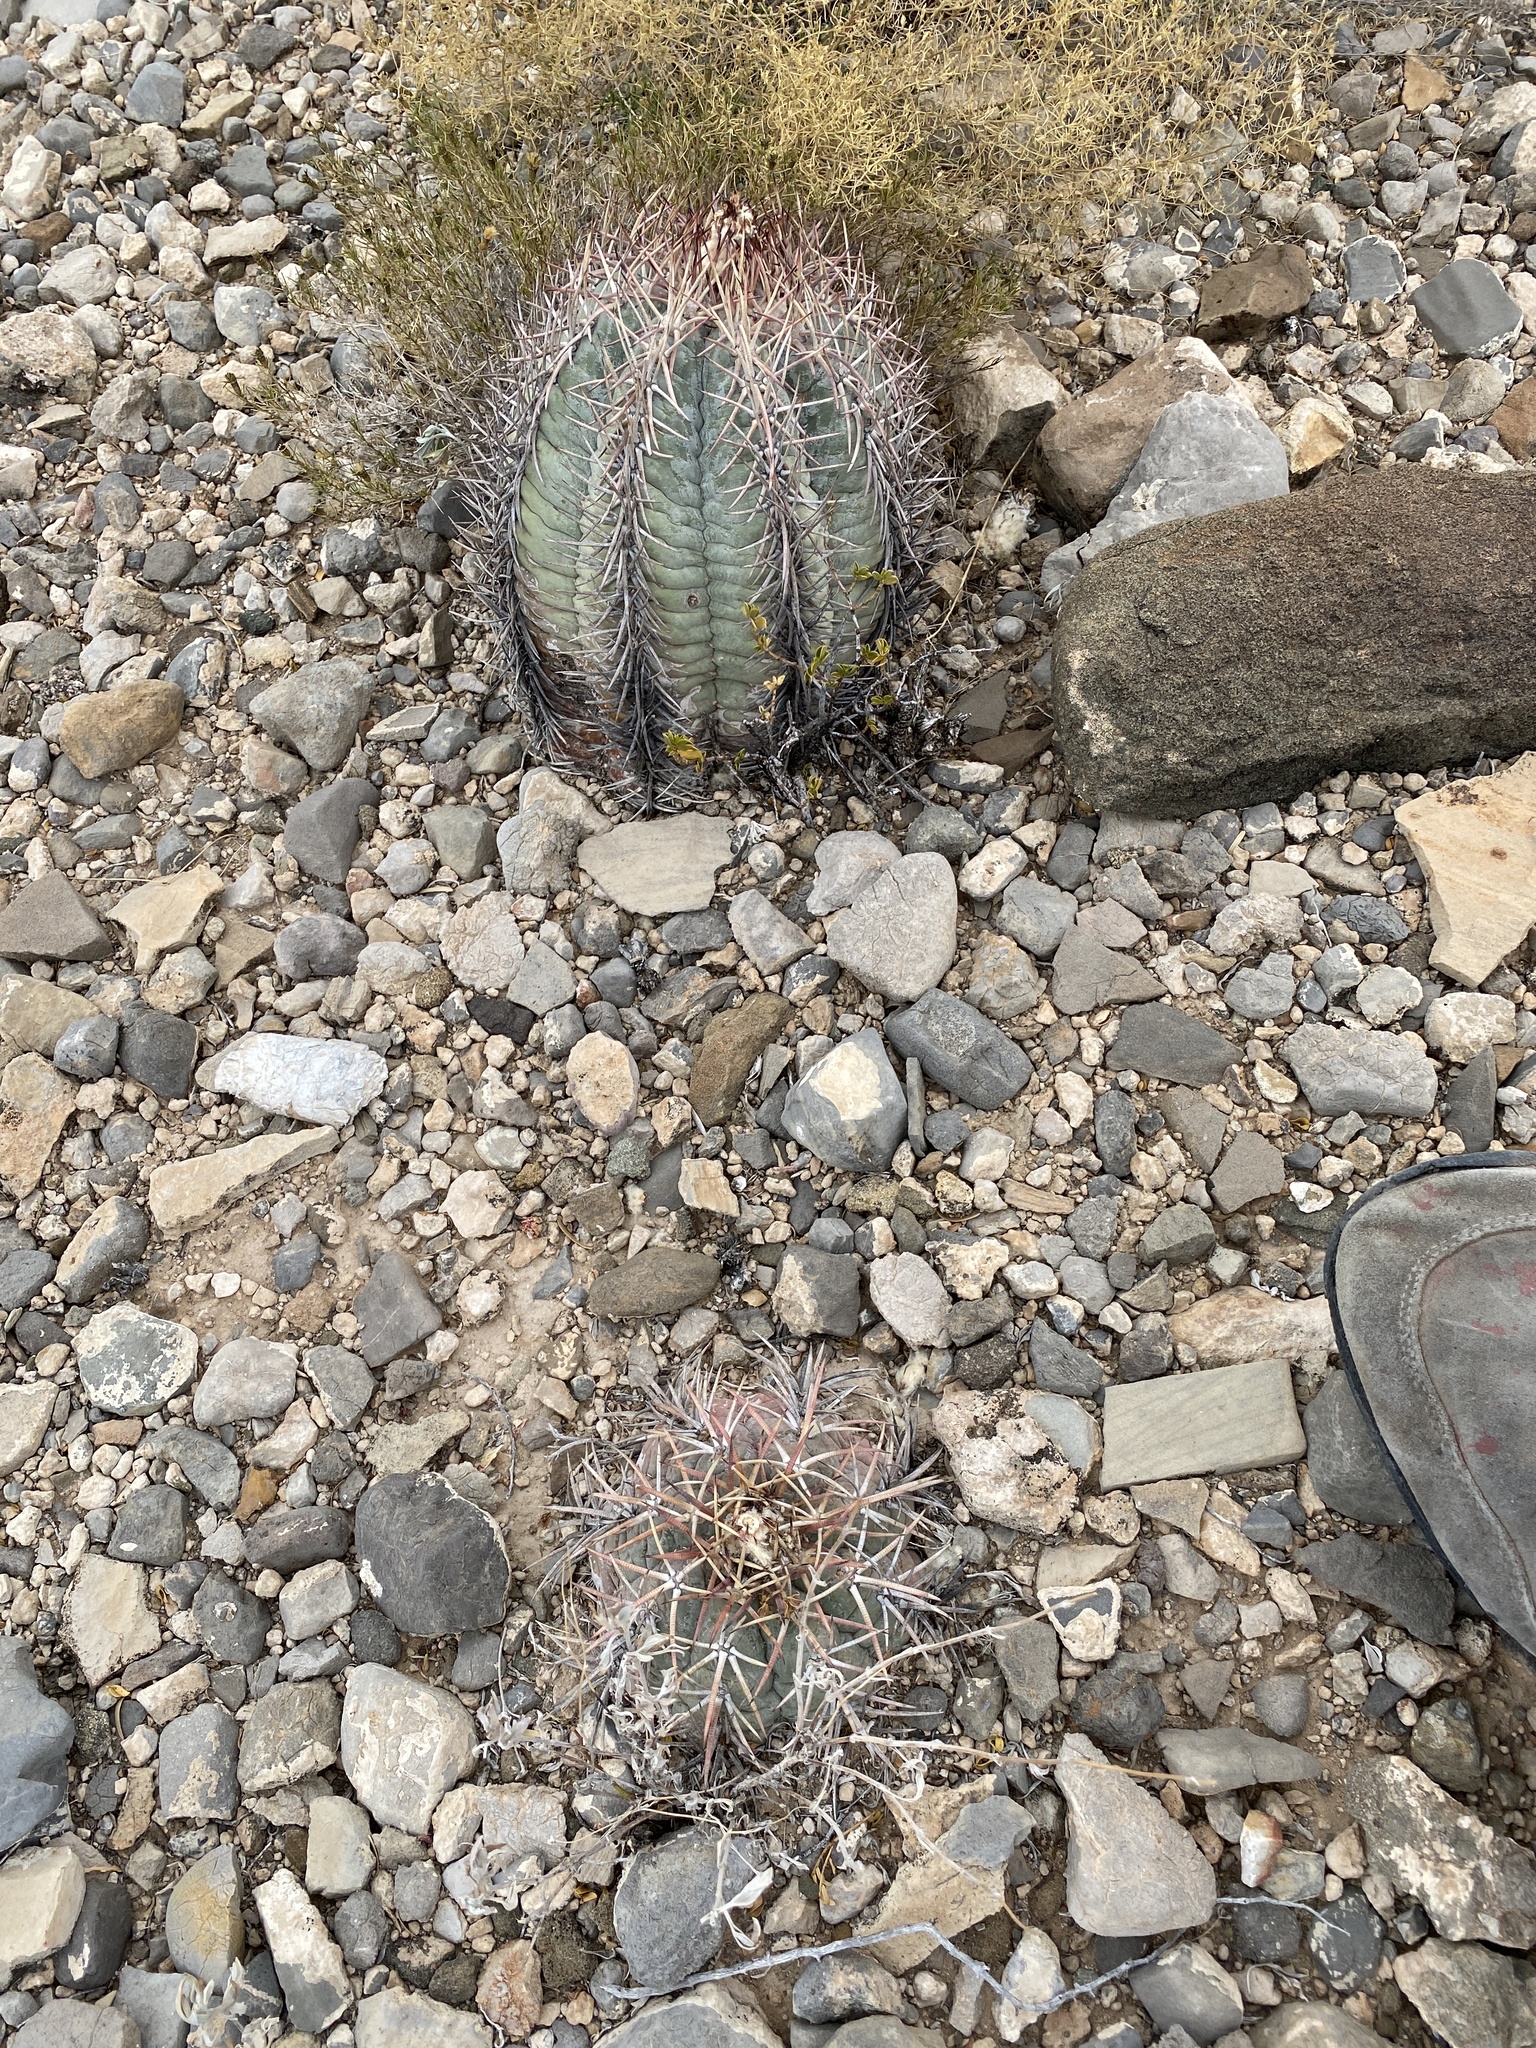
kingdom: Plantae
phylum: Tracheophyta
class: Magnoliopsida
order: Caryophyllales
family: Cactaceae
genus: Echinocactus
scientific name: Echinocactus horizonthalonius
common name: Devilshead
